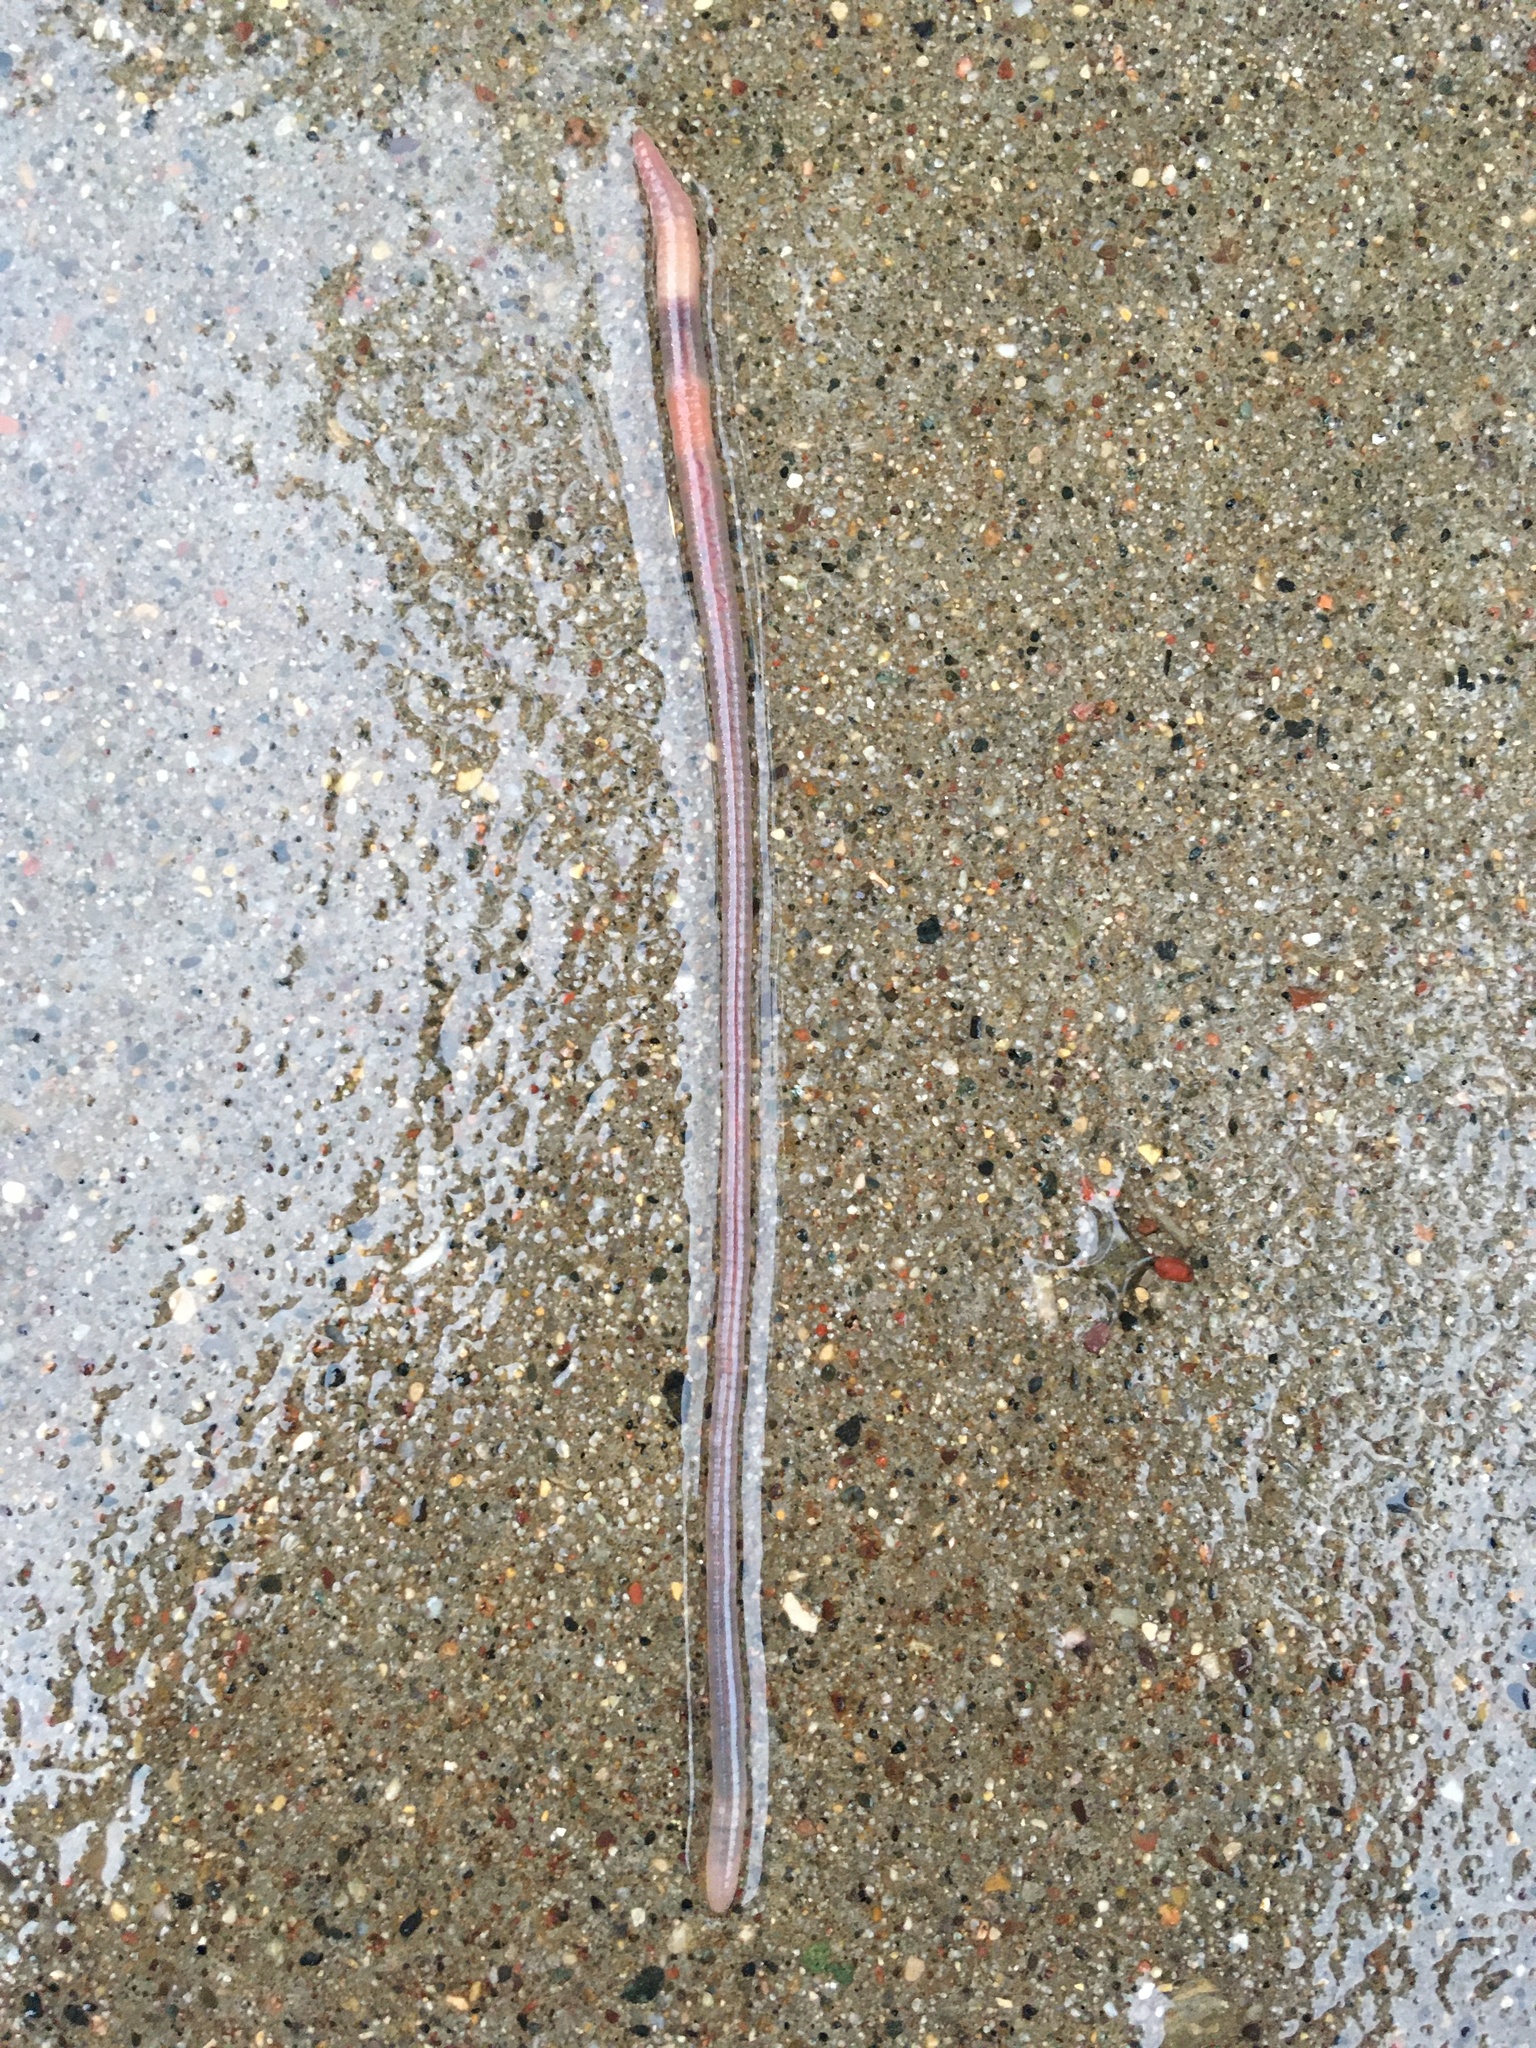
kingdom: Animalia
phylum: Annelida
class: Clitellata
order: Crassiclitellata
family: Lumbricidae
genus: Aporrectodea
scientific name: Aporrectodea caliginosa
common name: Grey worm
